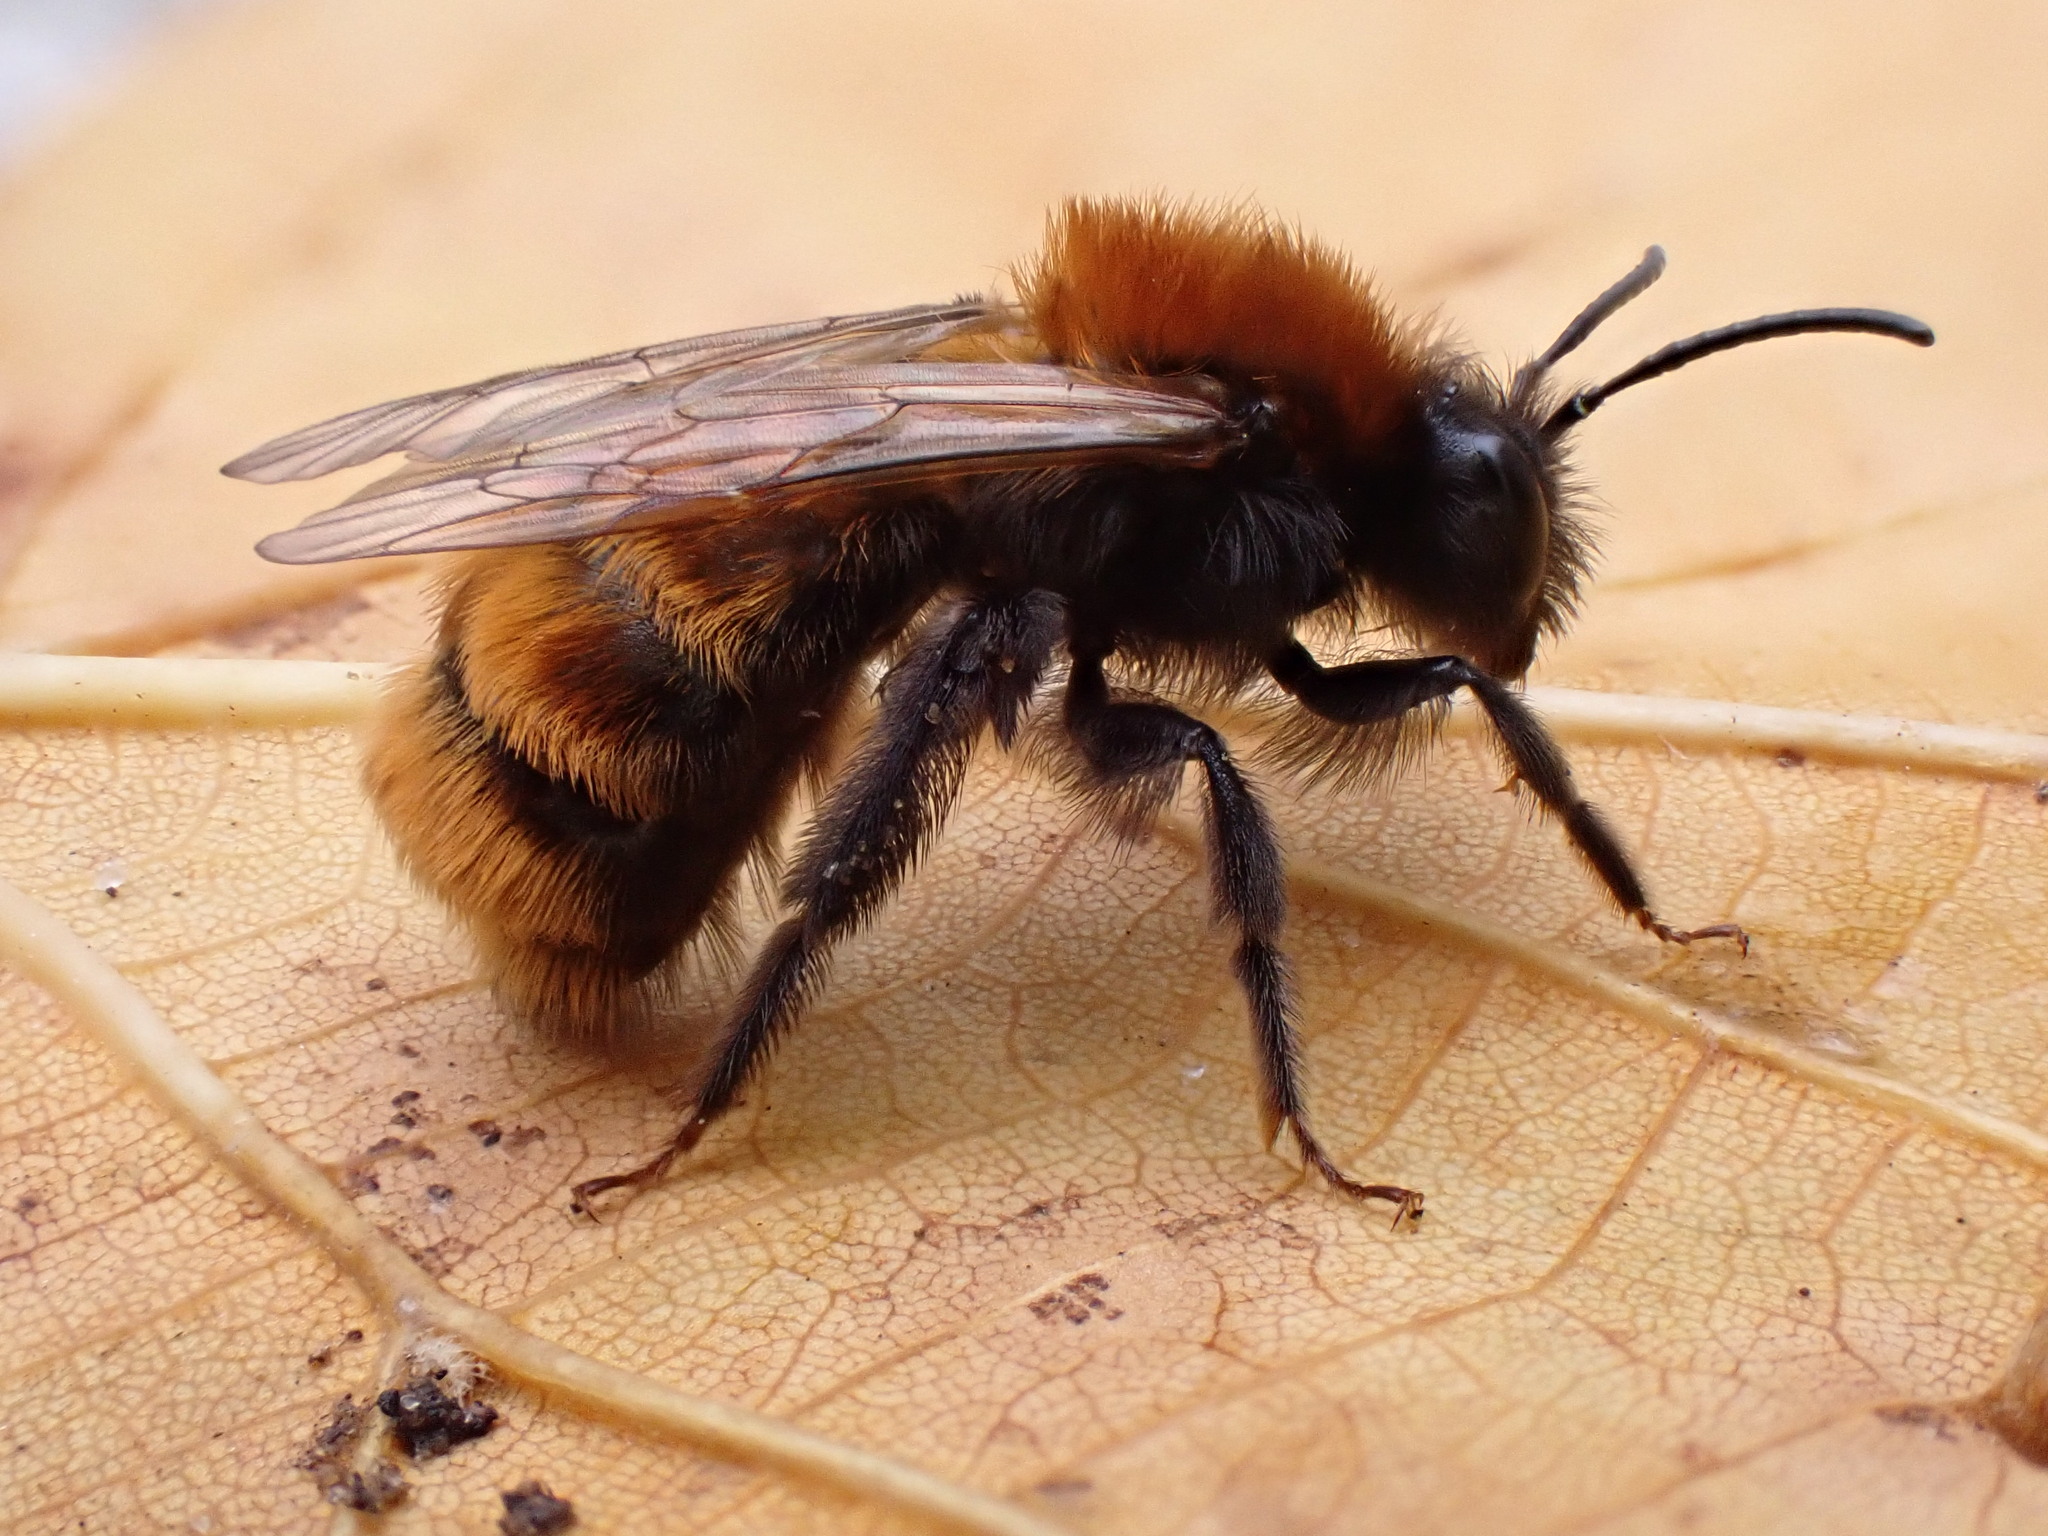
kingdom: Animalia
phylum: Arthropoda
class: Insecta
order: Hymenoptera
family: Andrenidae
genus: Andrena
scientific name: Andrena fulva
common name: Tawny mining bee
